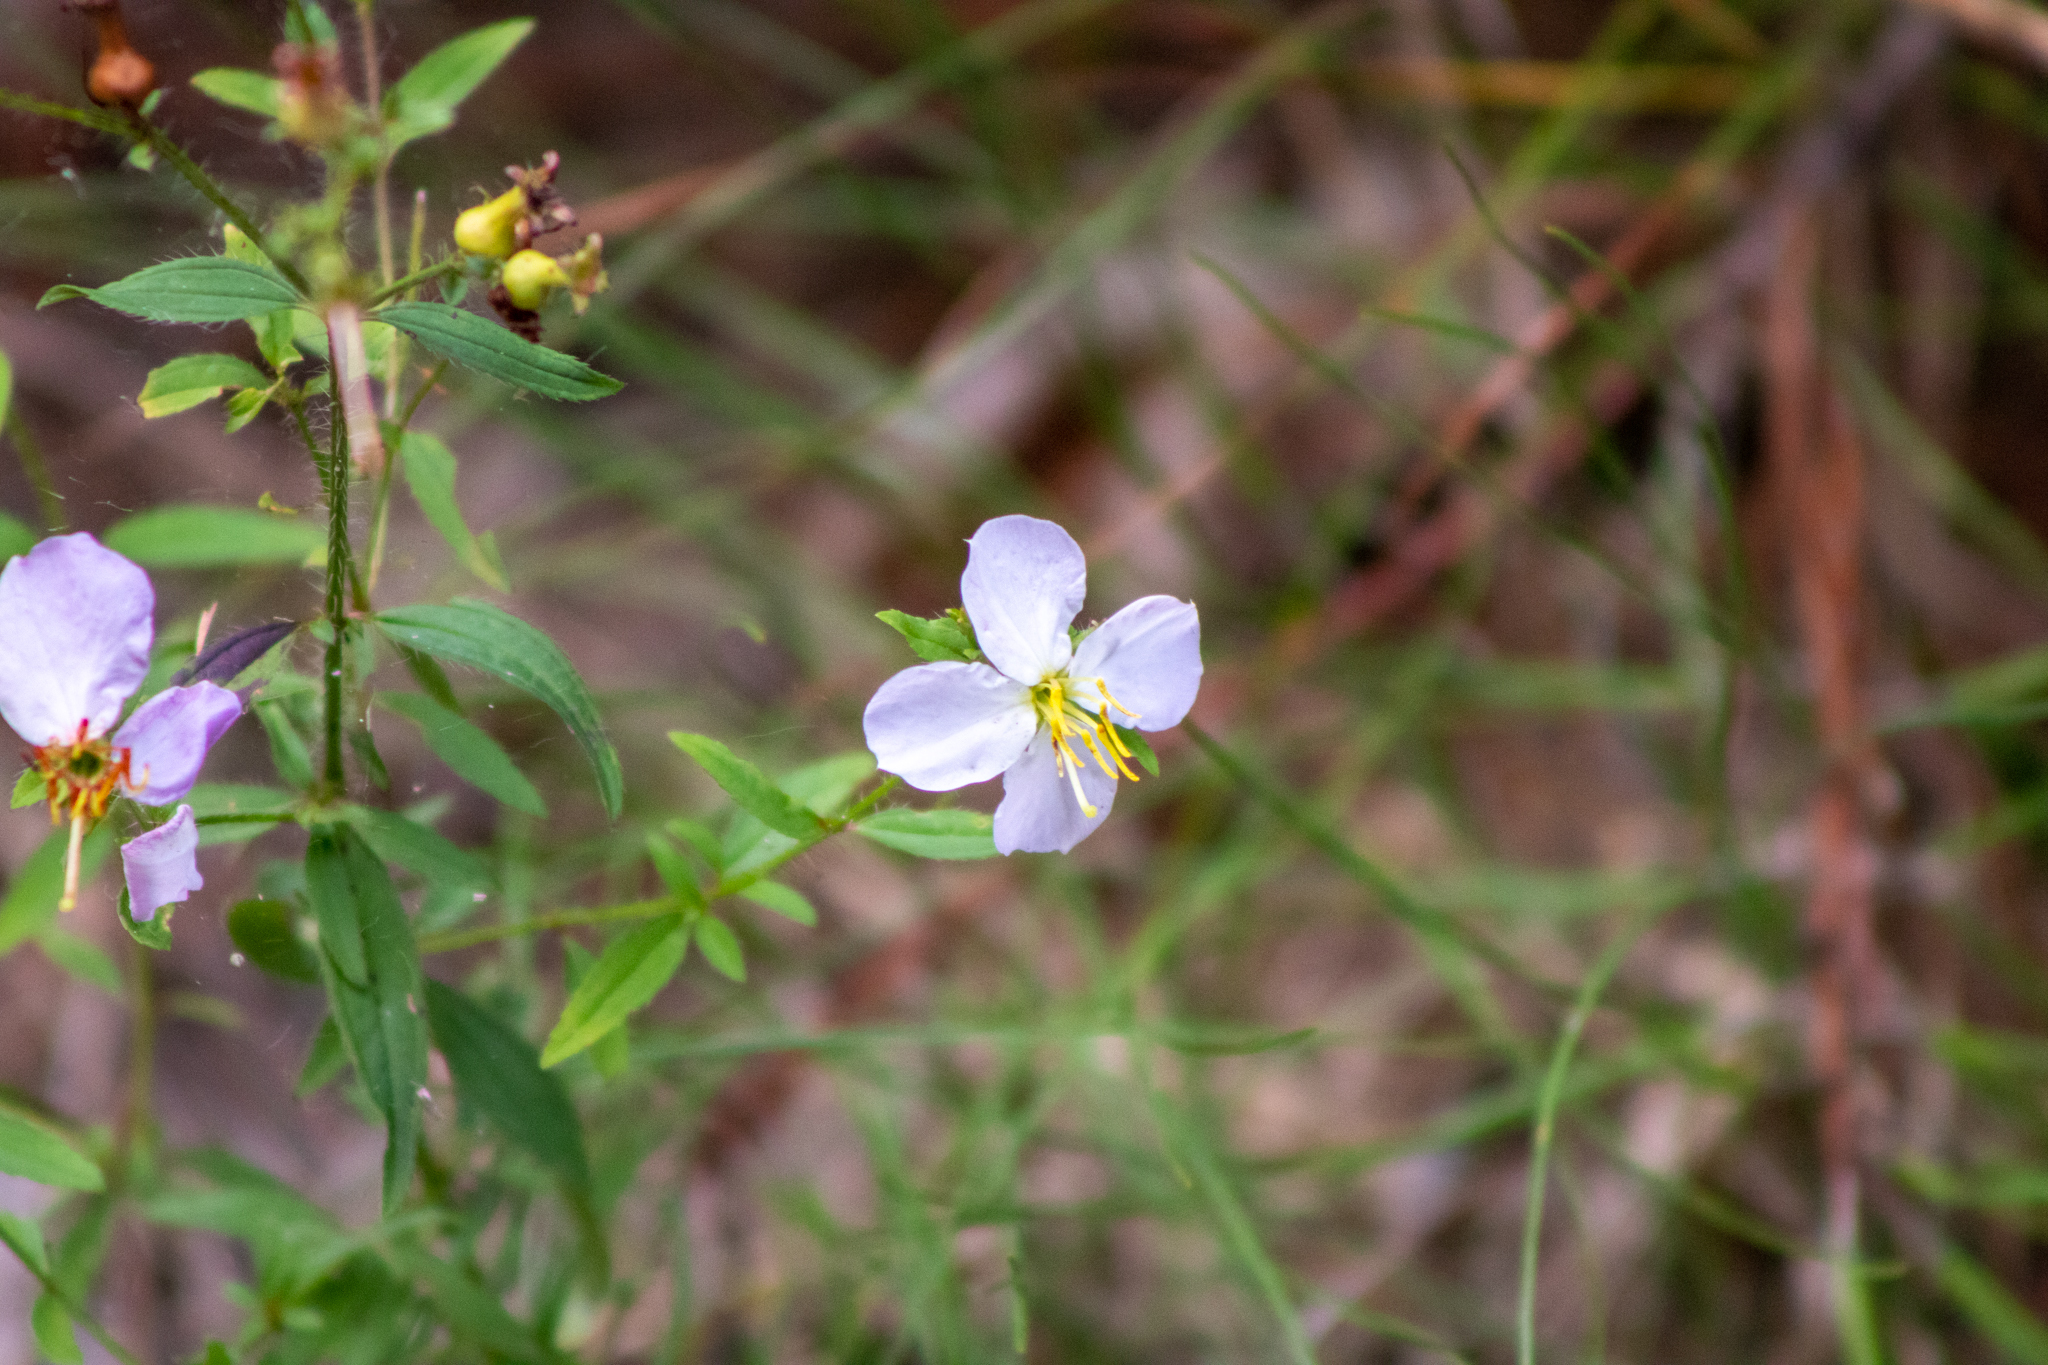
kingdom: Plantae
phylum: Tracheophyta
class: Magnoliopsida
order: Myrtales
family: Melastomataceae
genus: Rhexia
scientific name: Rhexia mariana
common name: Dull meadow-pitcher
